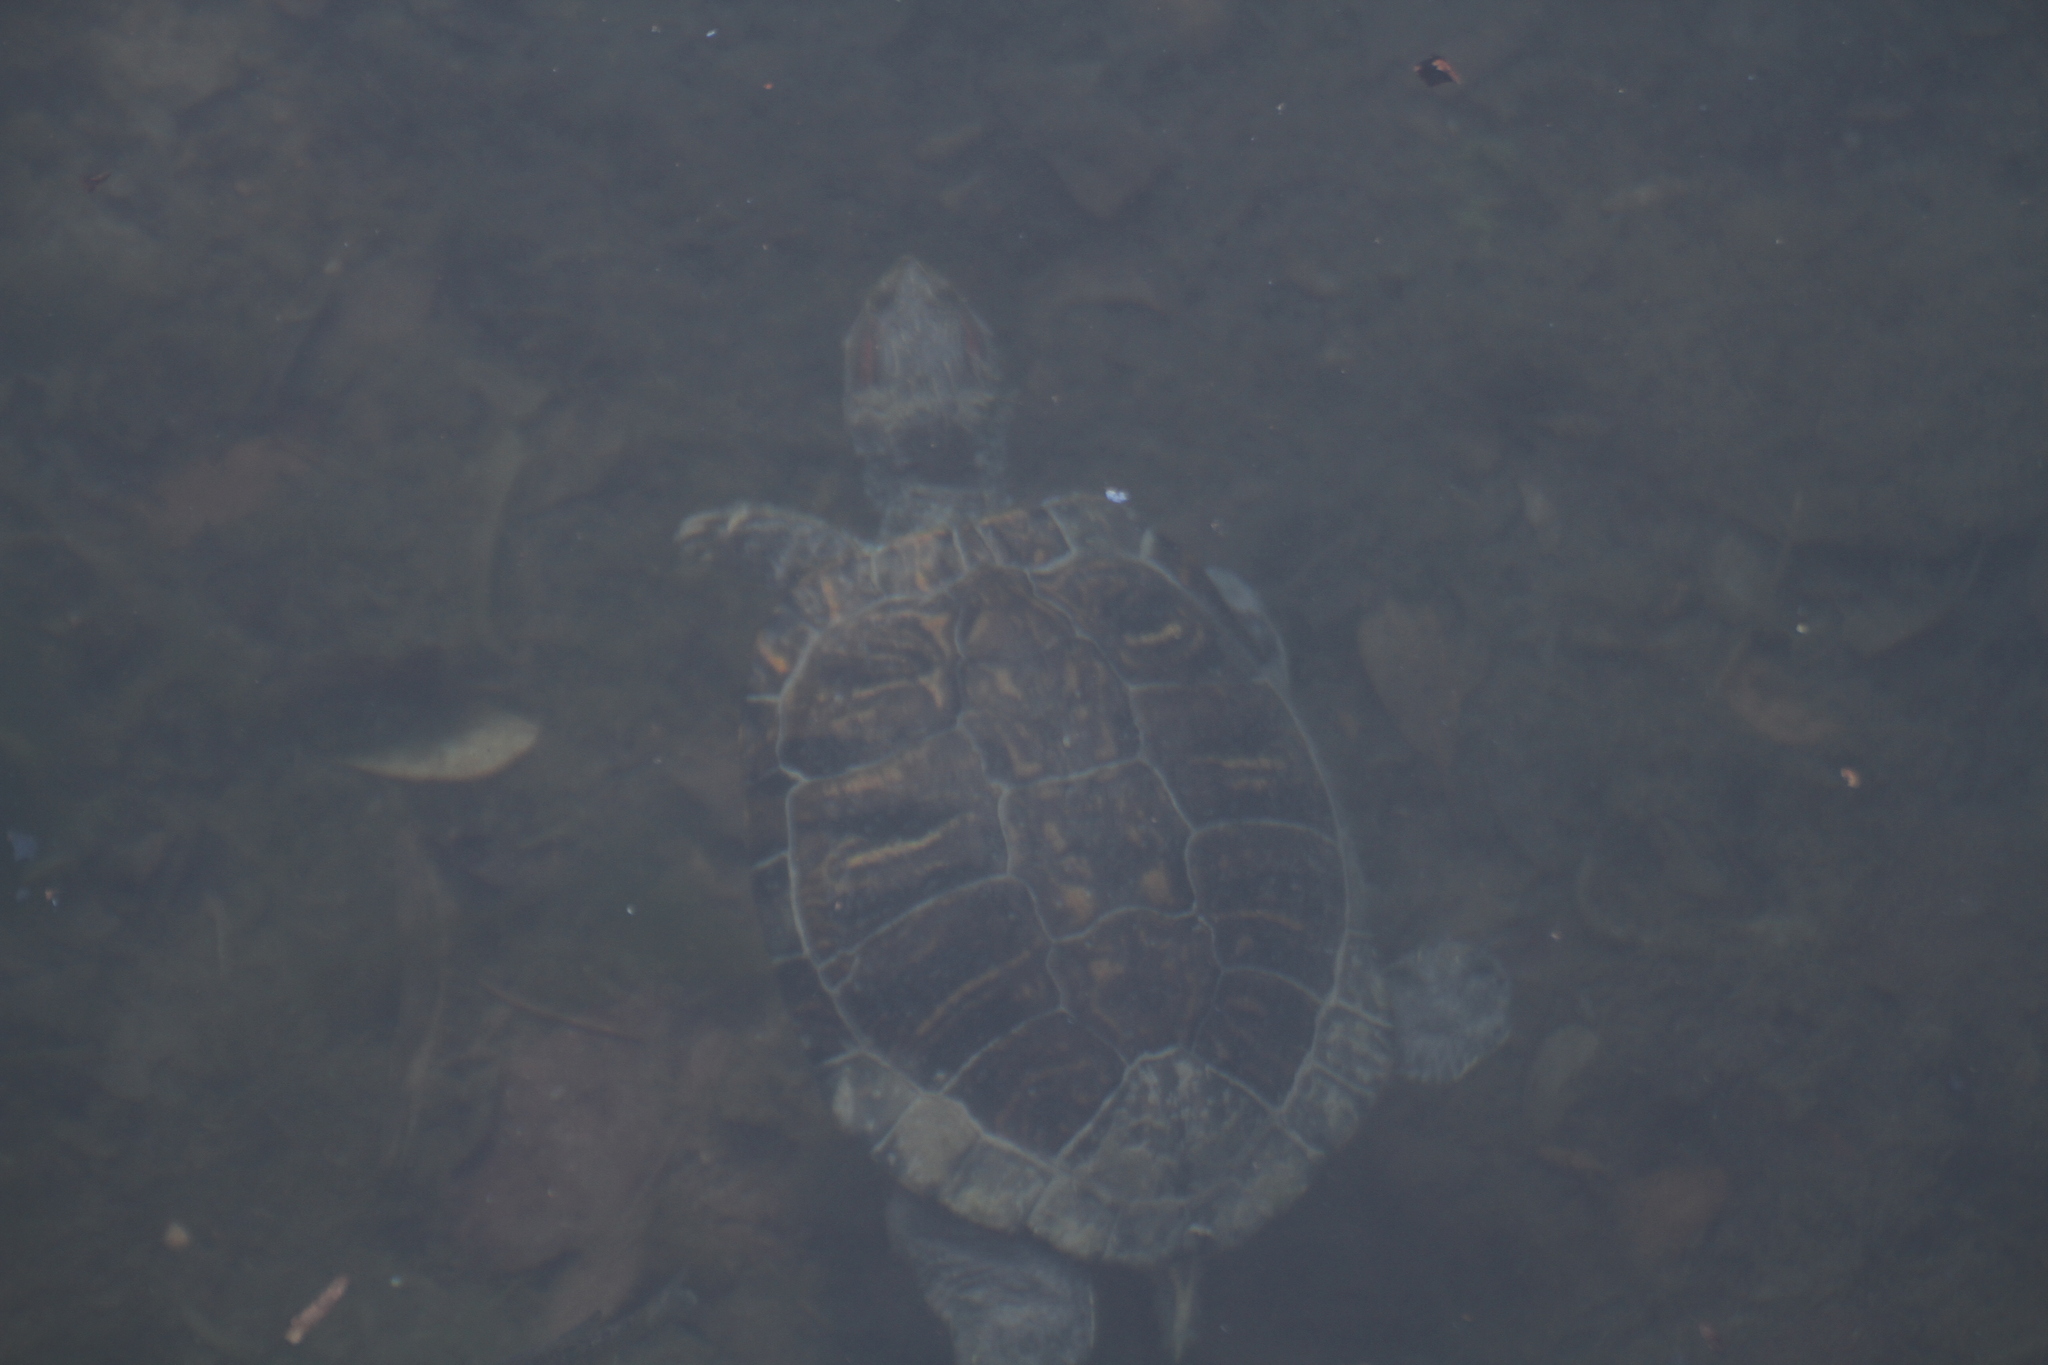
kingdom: Animalia
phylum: Chordata
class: Testudines
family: Emydidae
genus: Trachemys
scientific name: Trachemys scripta
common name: Slider
